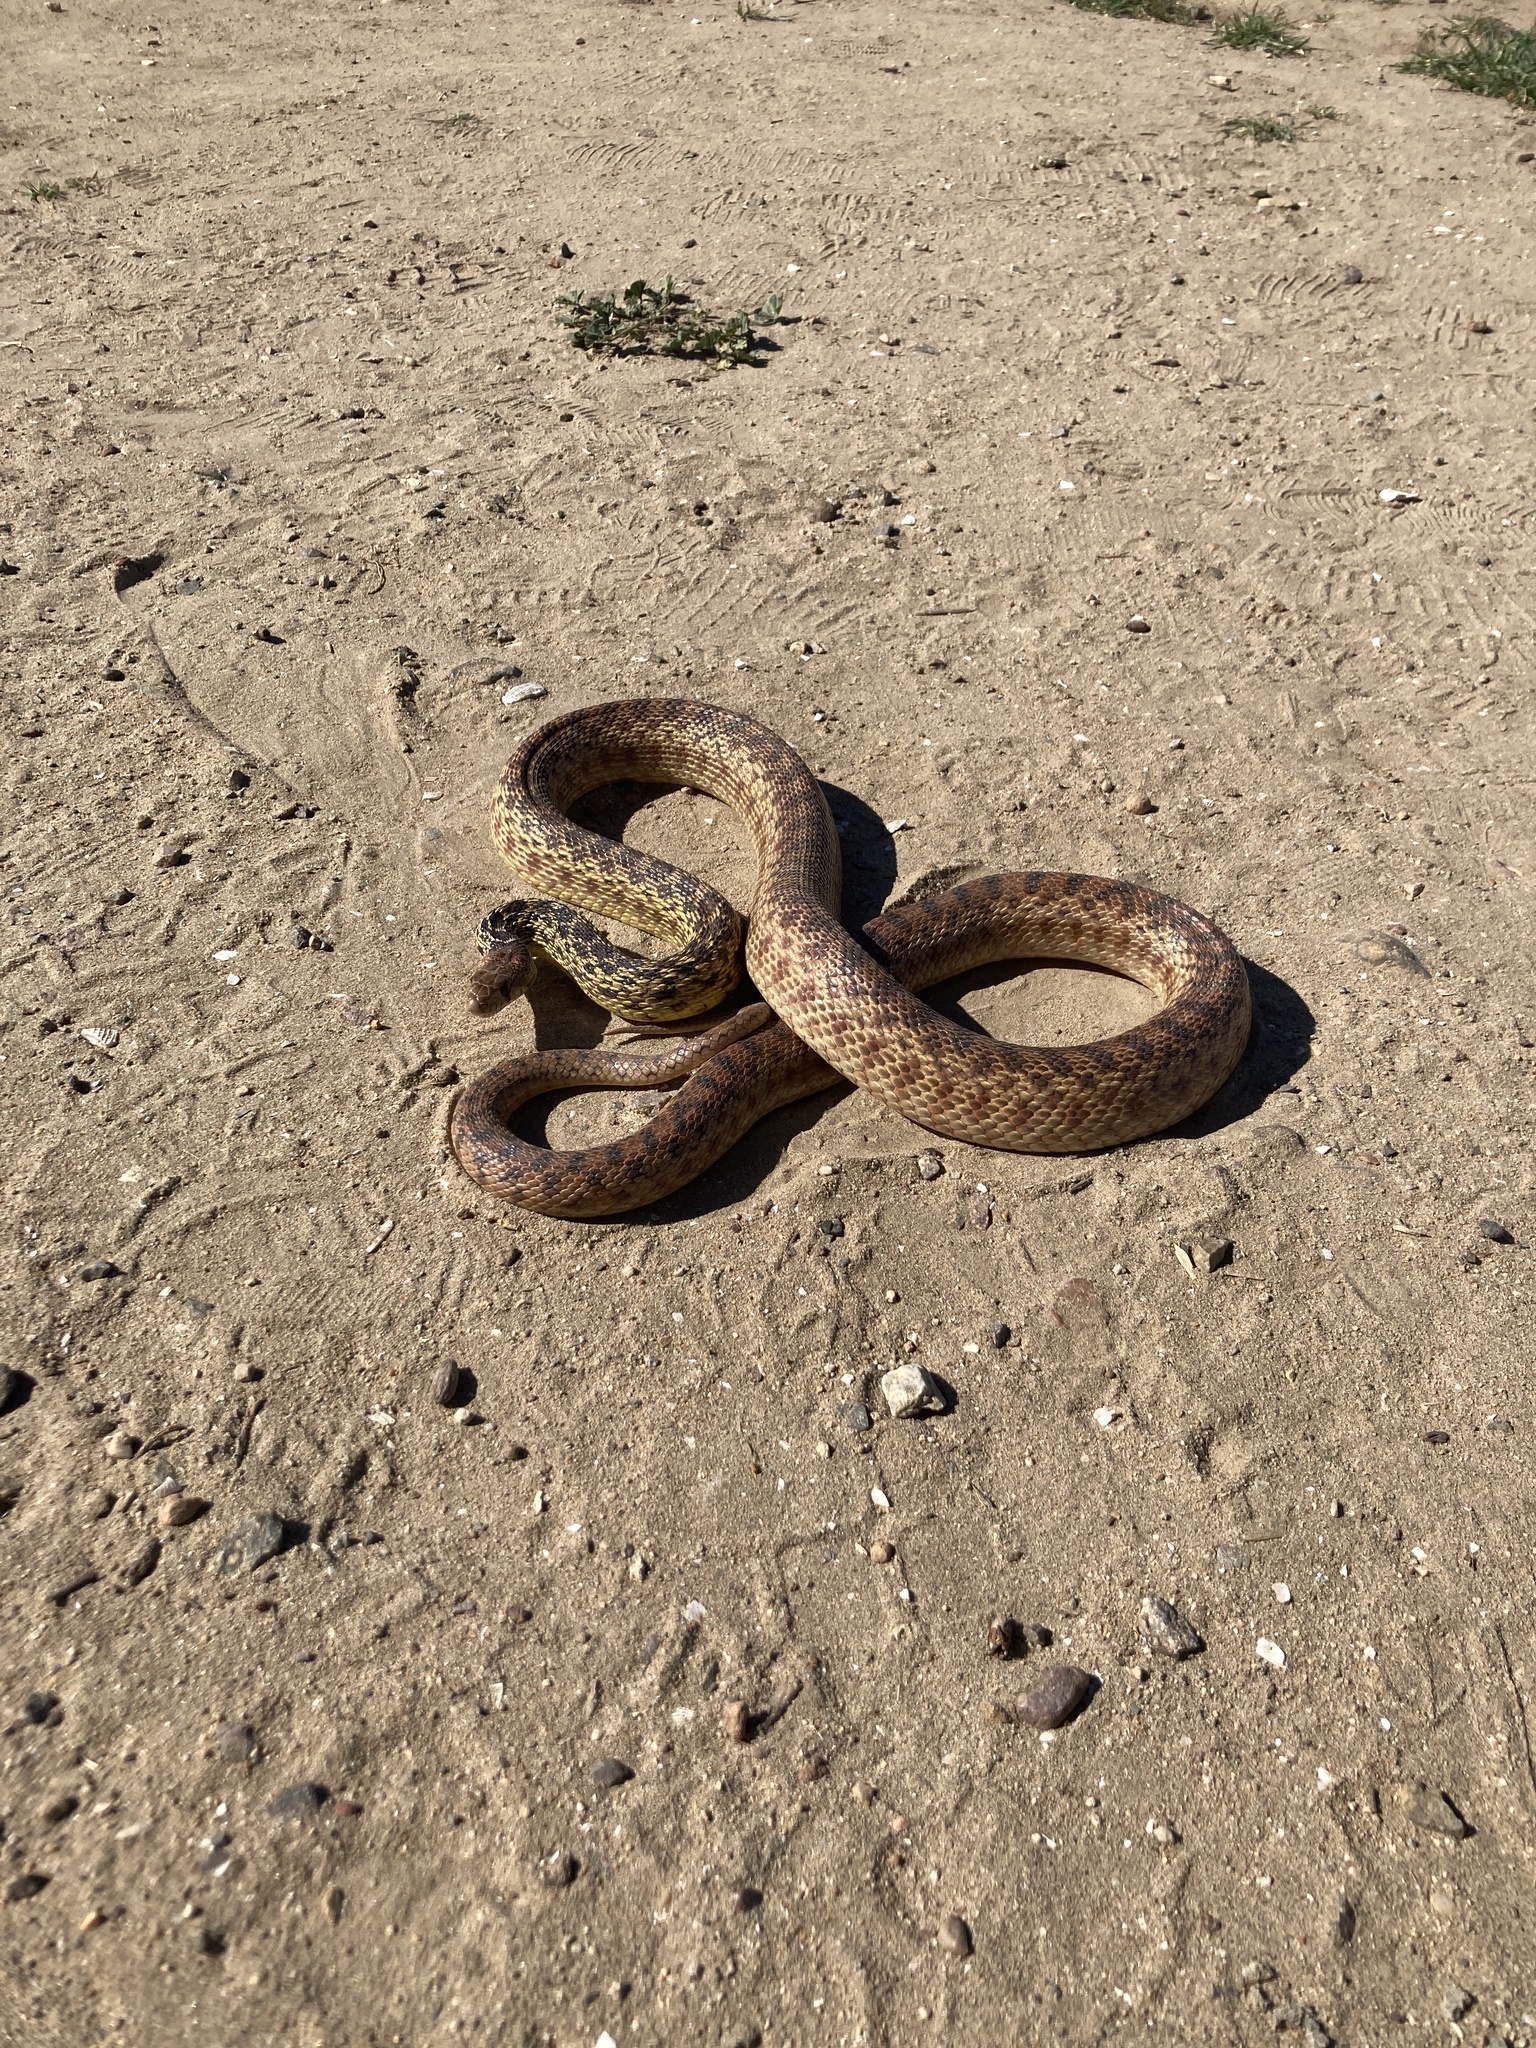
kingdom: Animalia
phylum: Chordata
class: Squamata
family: Colubridae
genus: Pituophis
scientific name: Pituophis catenifer
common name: Gopher snake
